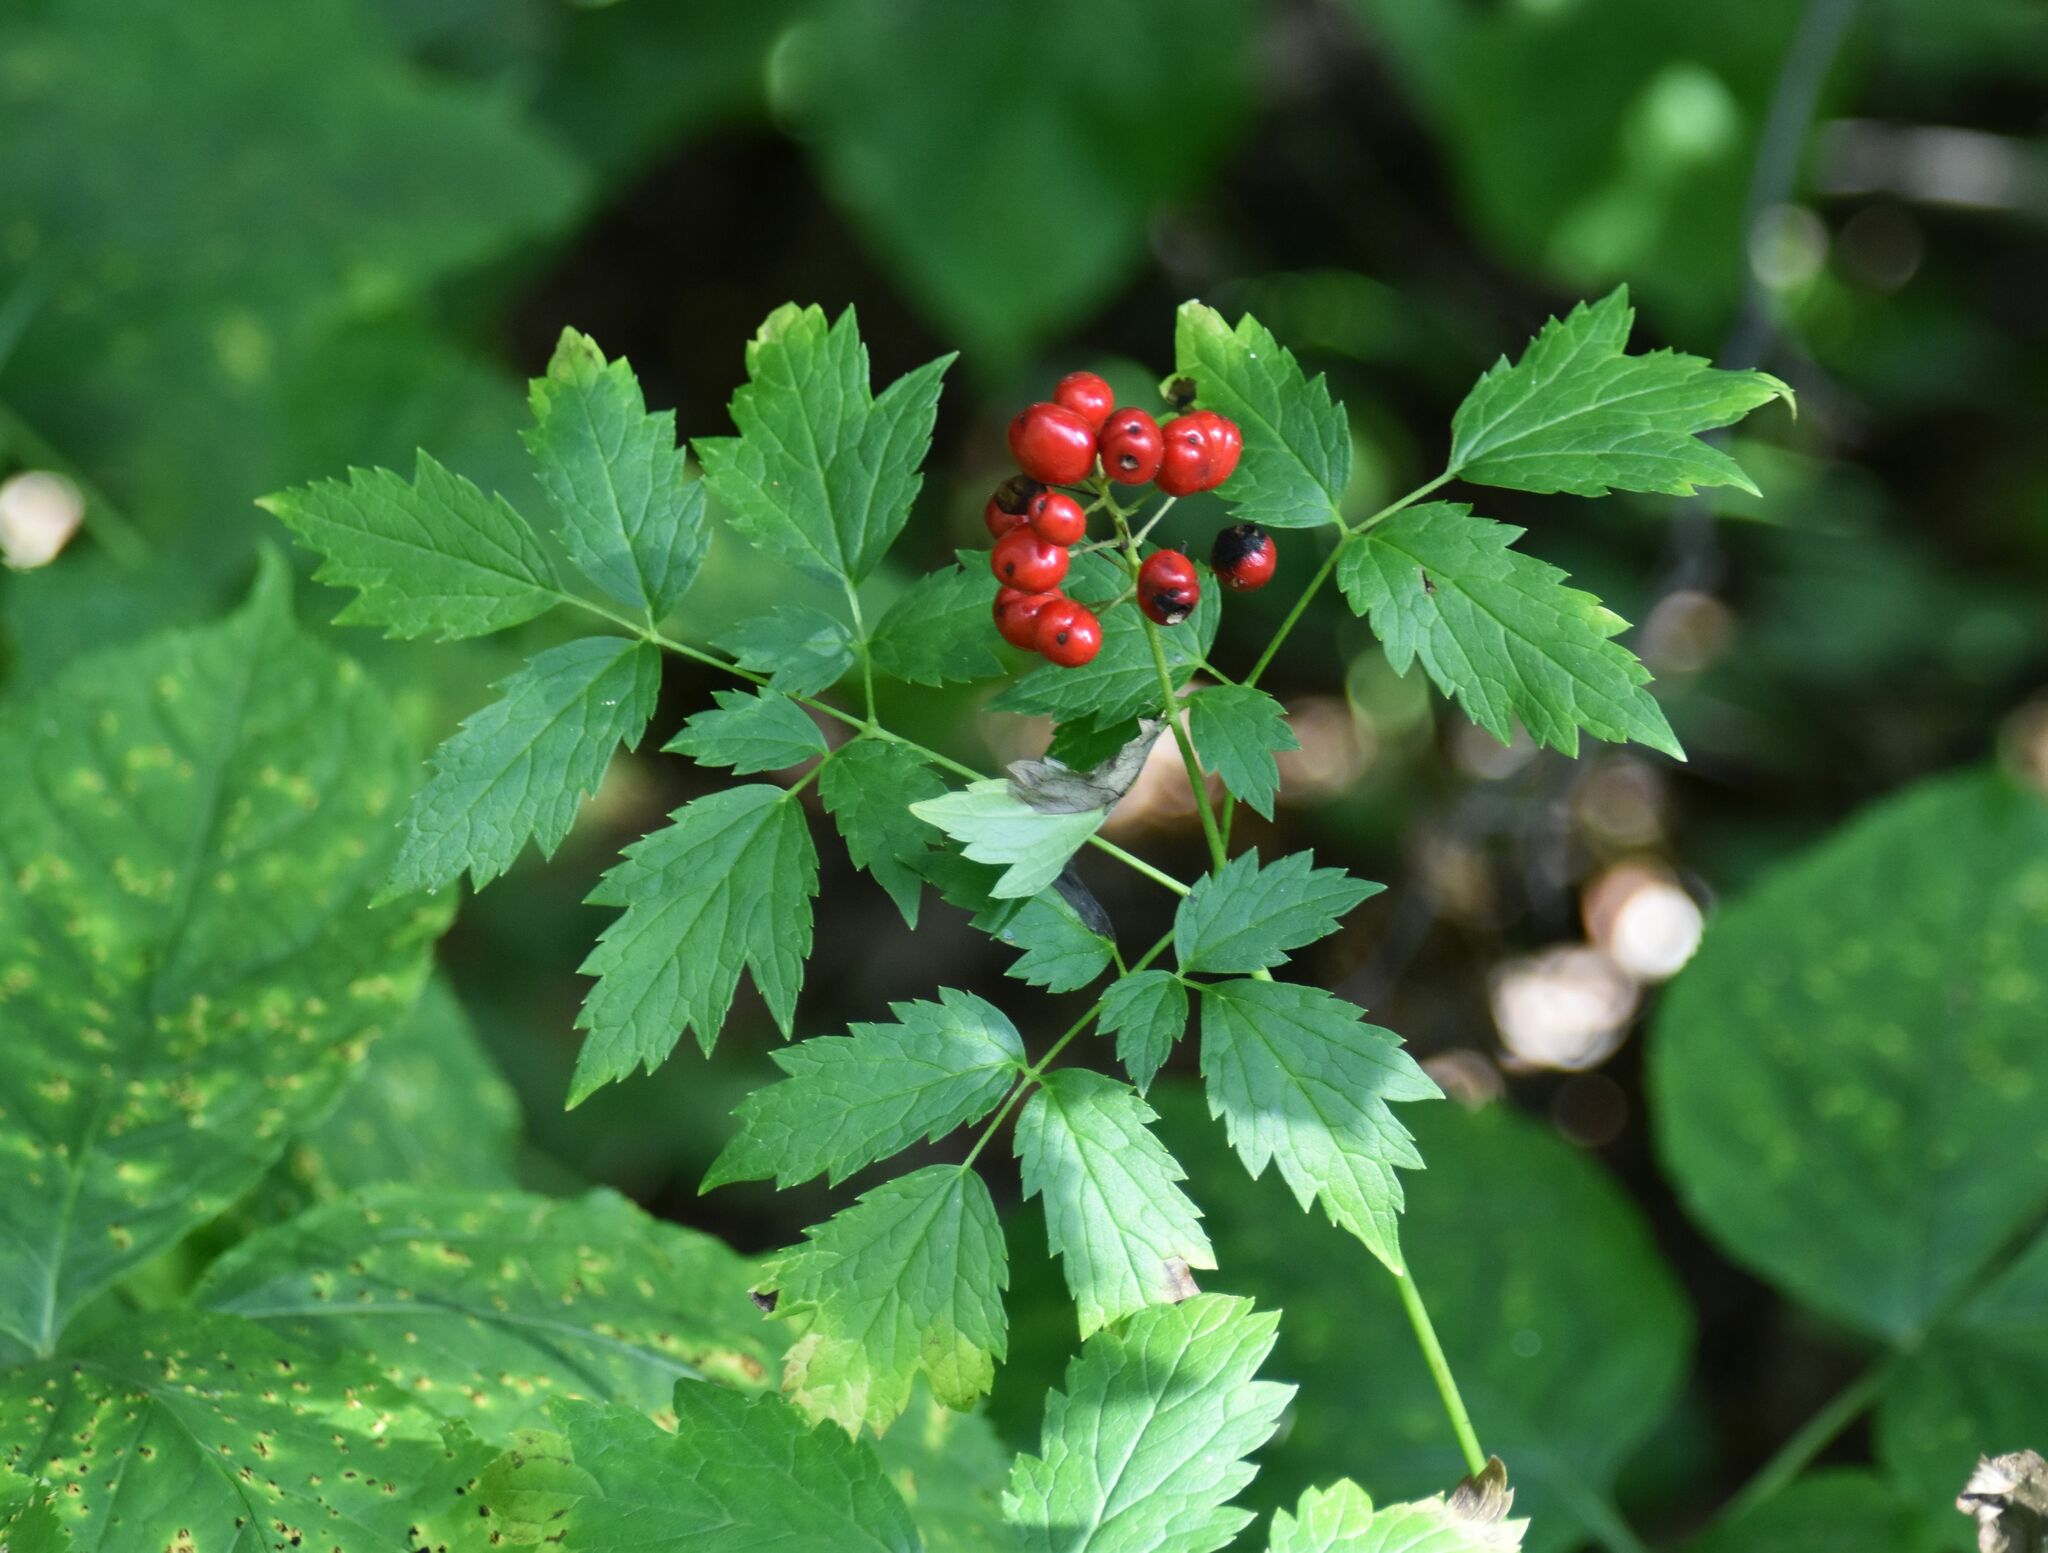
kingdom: Plantae
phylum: Tracheophyta
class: Magnoliopsida
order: Ranunculales
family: Ranunculaceae
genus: Actaea
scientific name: Actaea rubra
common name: Red baneberry
